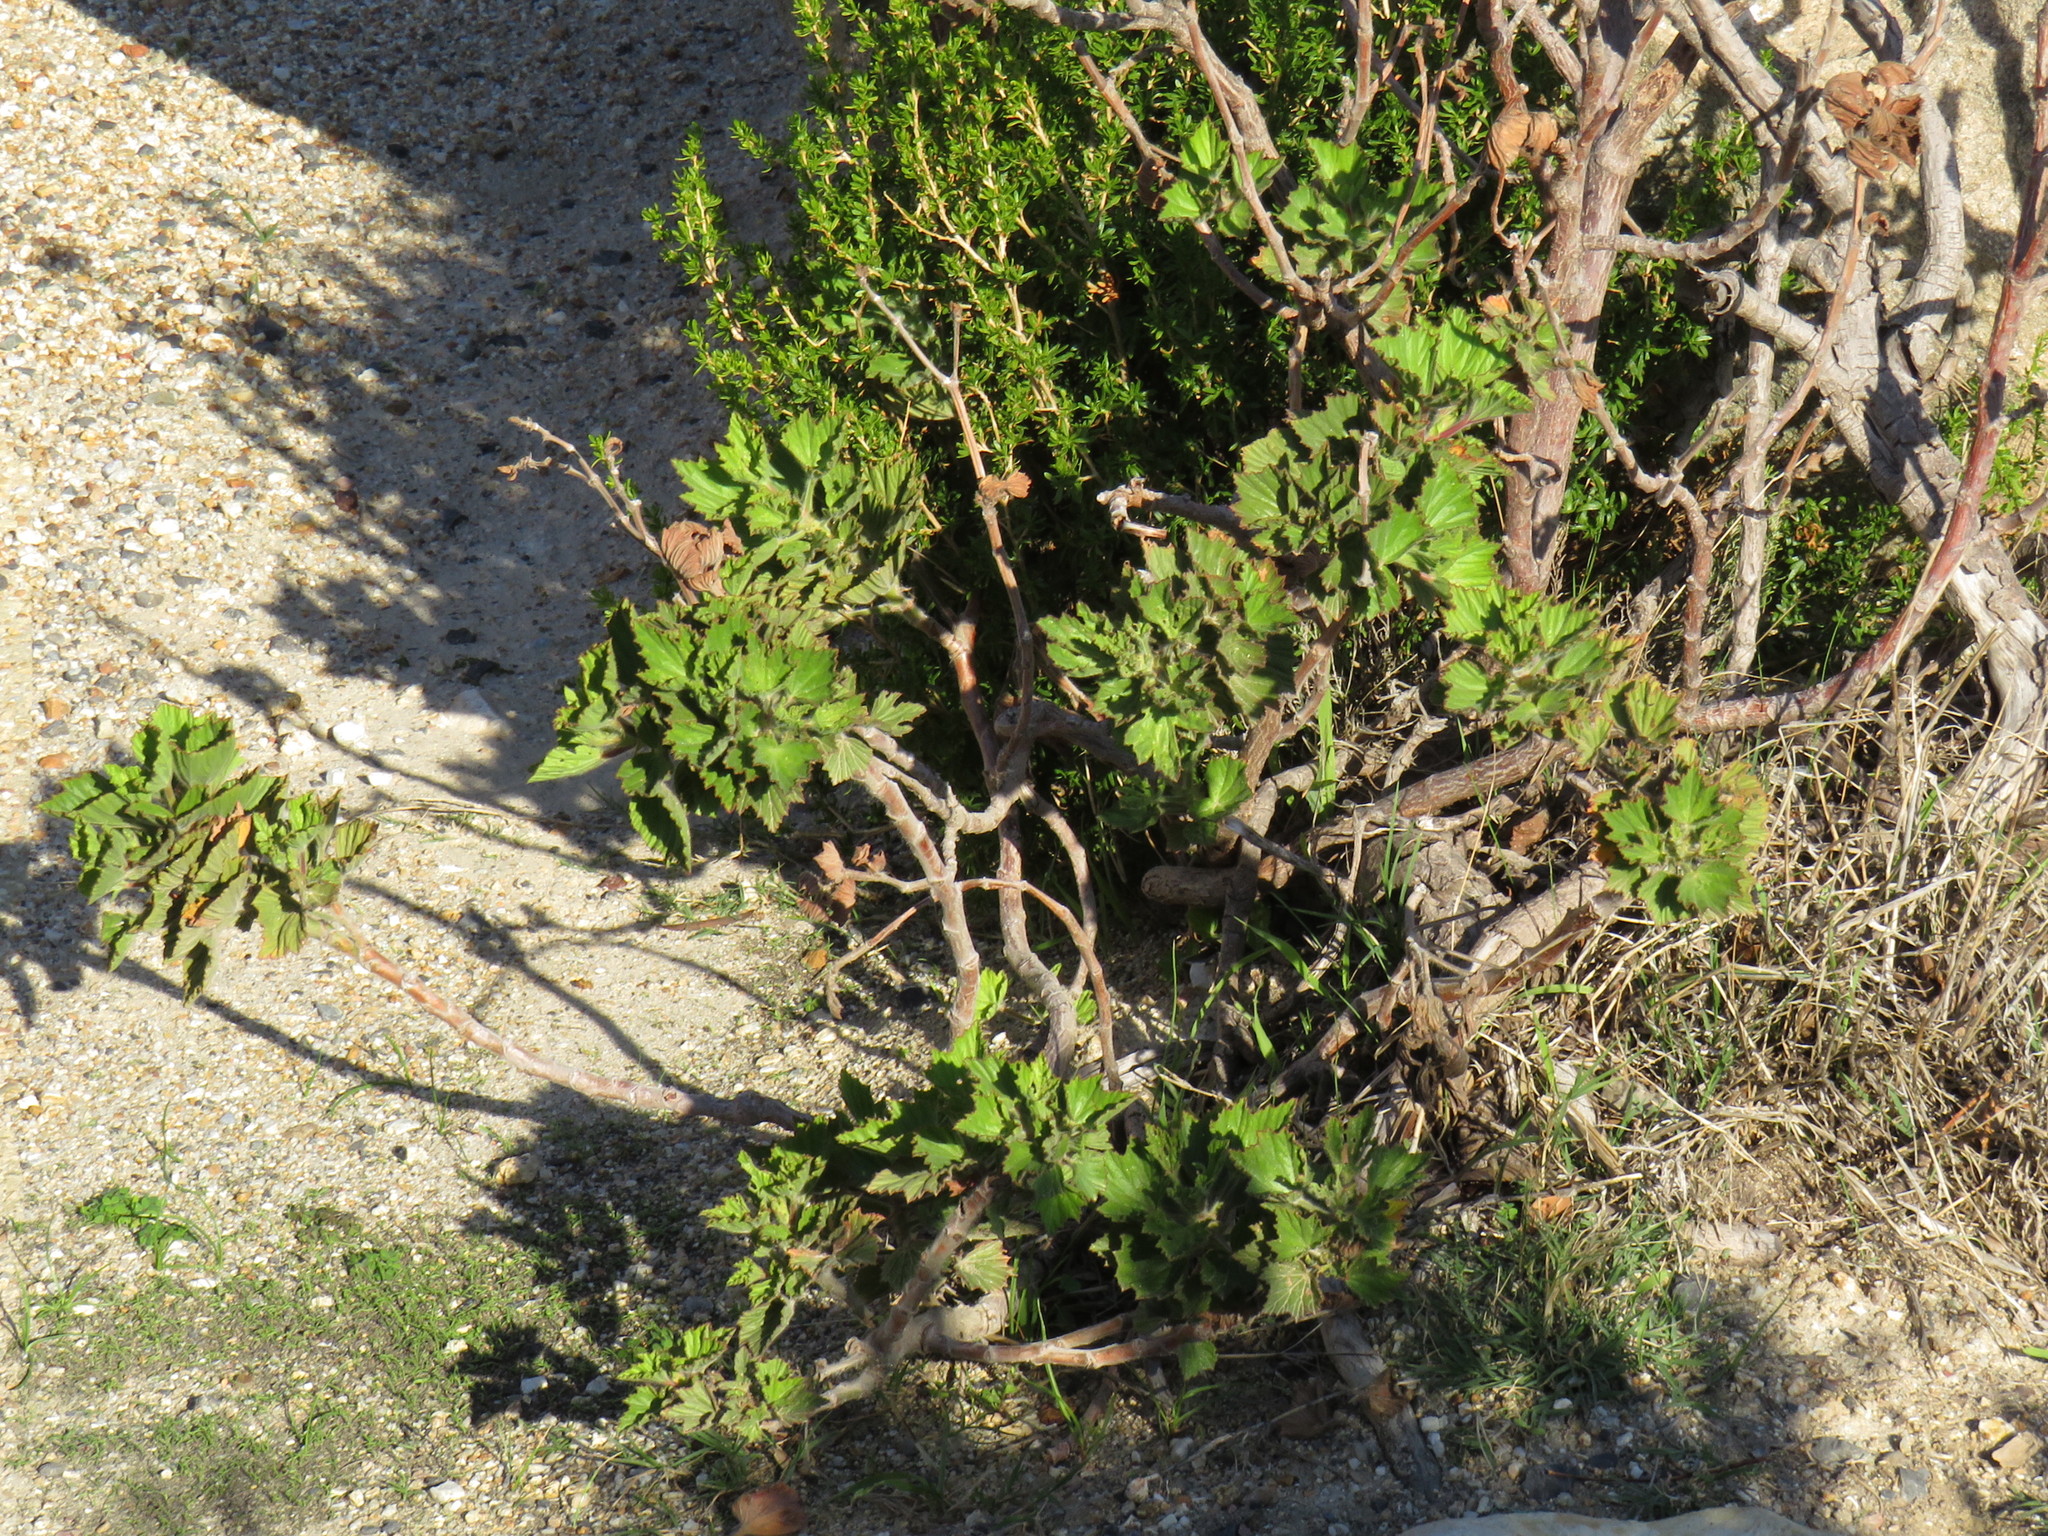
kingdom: Plantae
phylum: Tracheophyta
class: Magnoliopsida
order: Geraniales
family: Geraniaceae
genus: Pelargonium
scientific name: Pelargonium cucullatum
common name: Tree pelargonium
